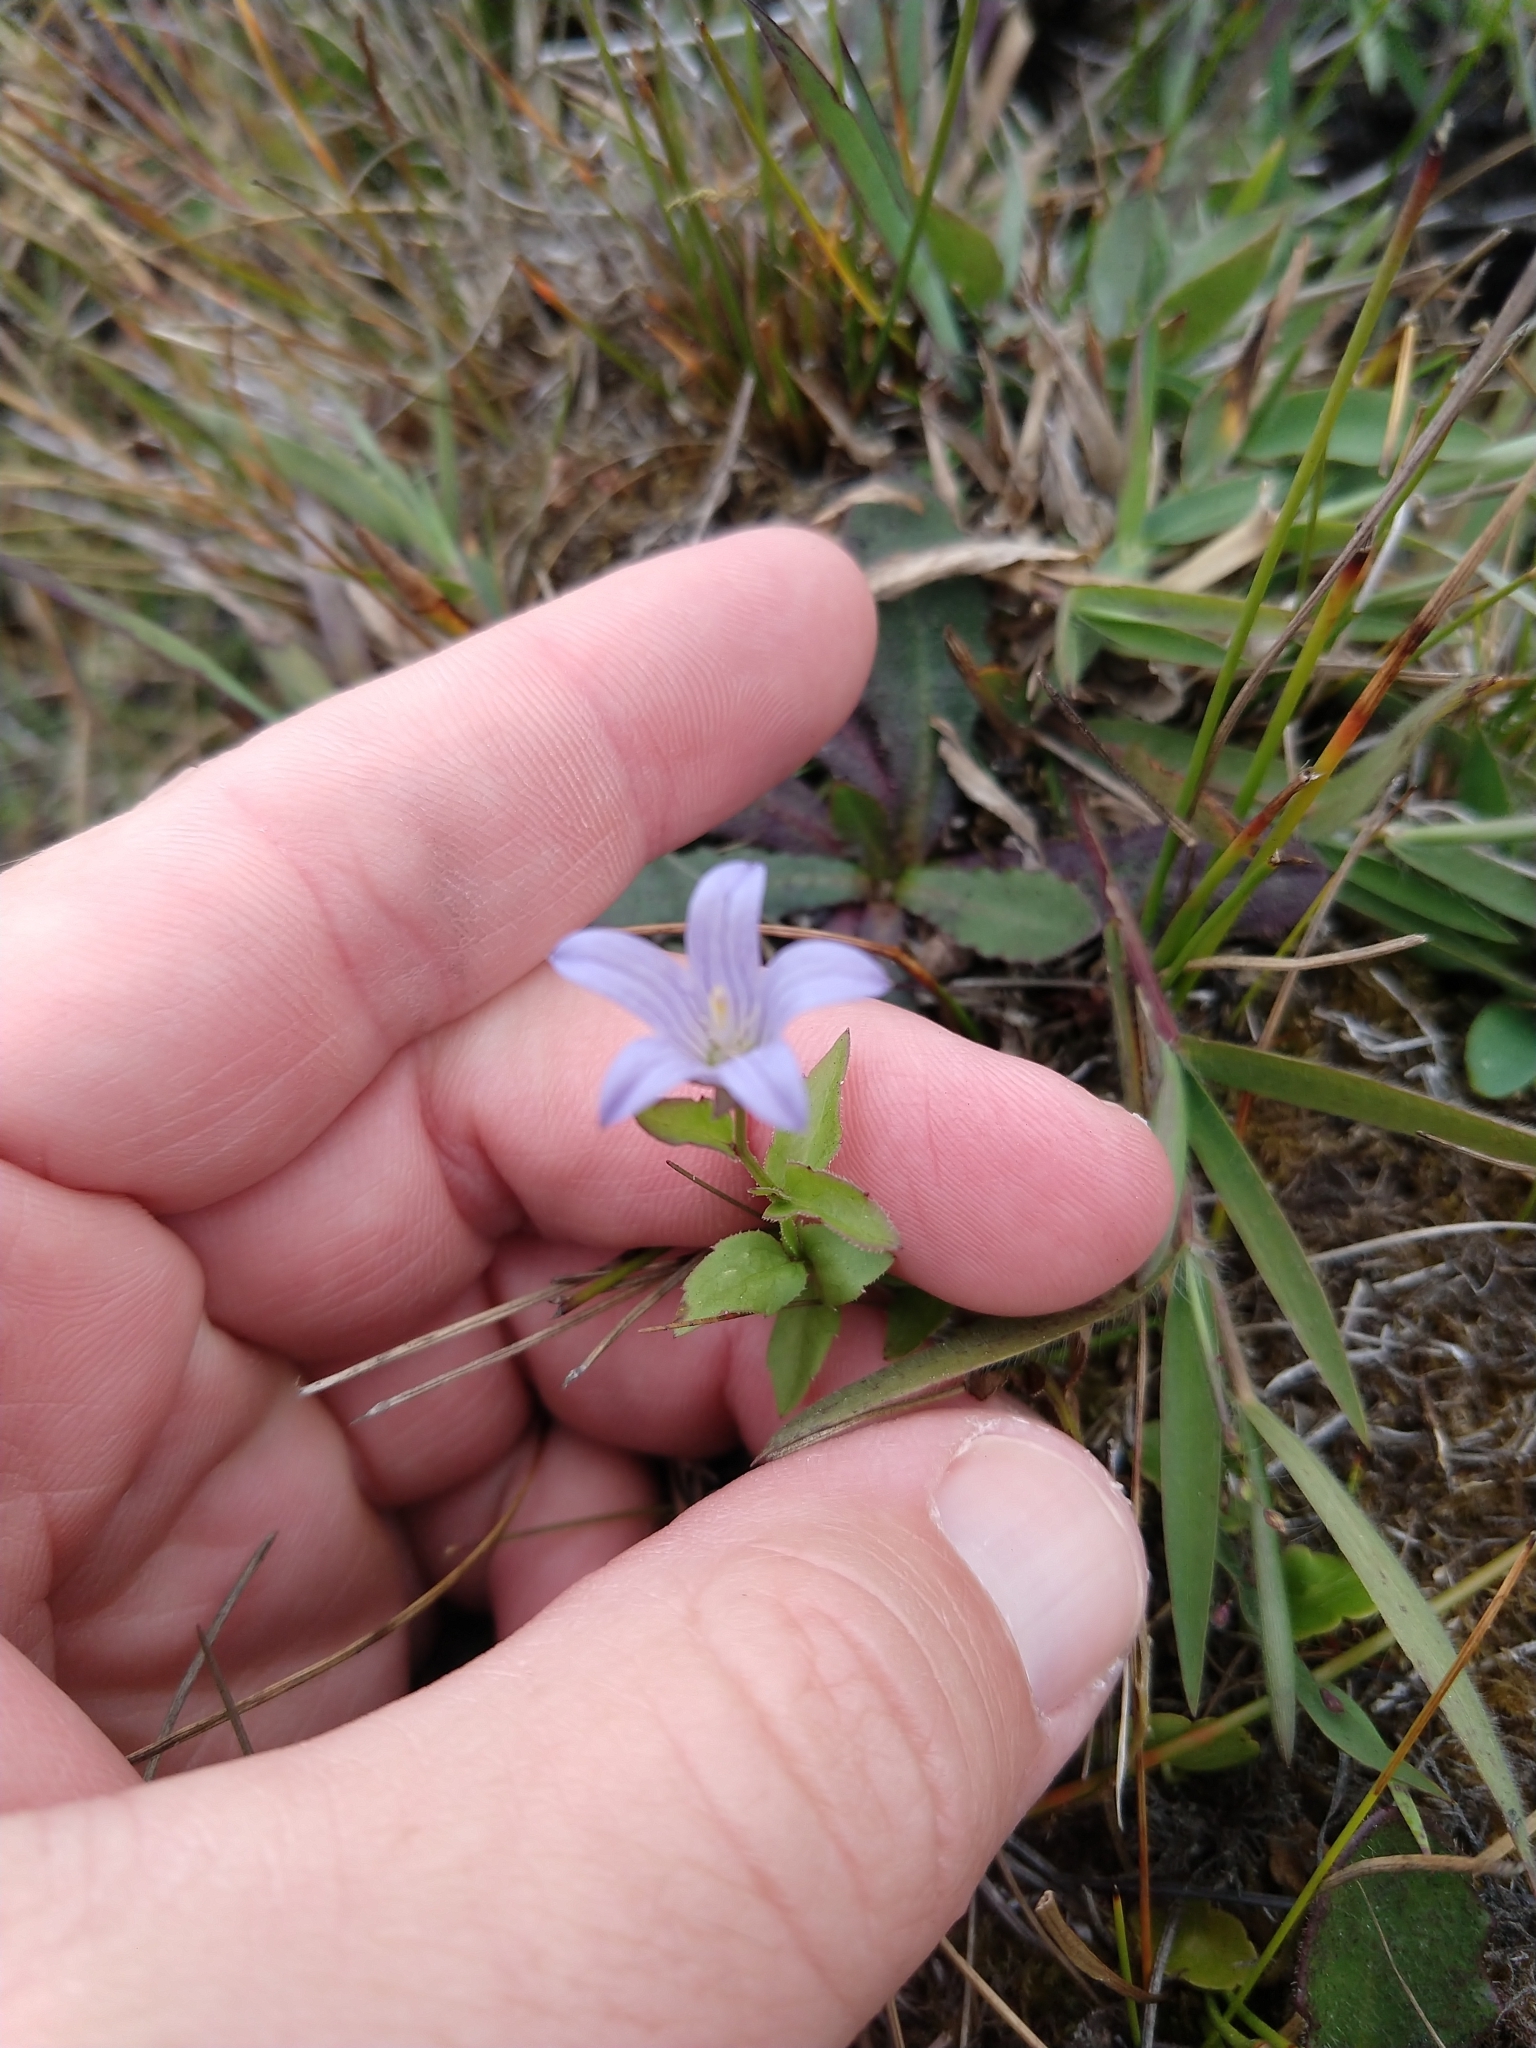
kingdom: Plantae
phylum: Tracheophyta
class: Magnoliopsida
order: Asterales
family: Campanulaceae
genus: Eastwoodiella
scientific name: Eastwoodiella californica
